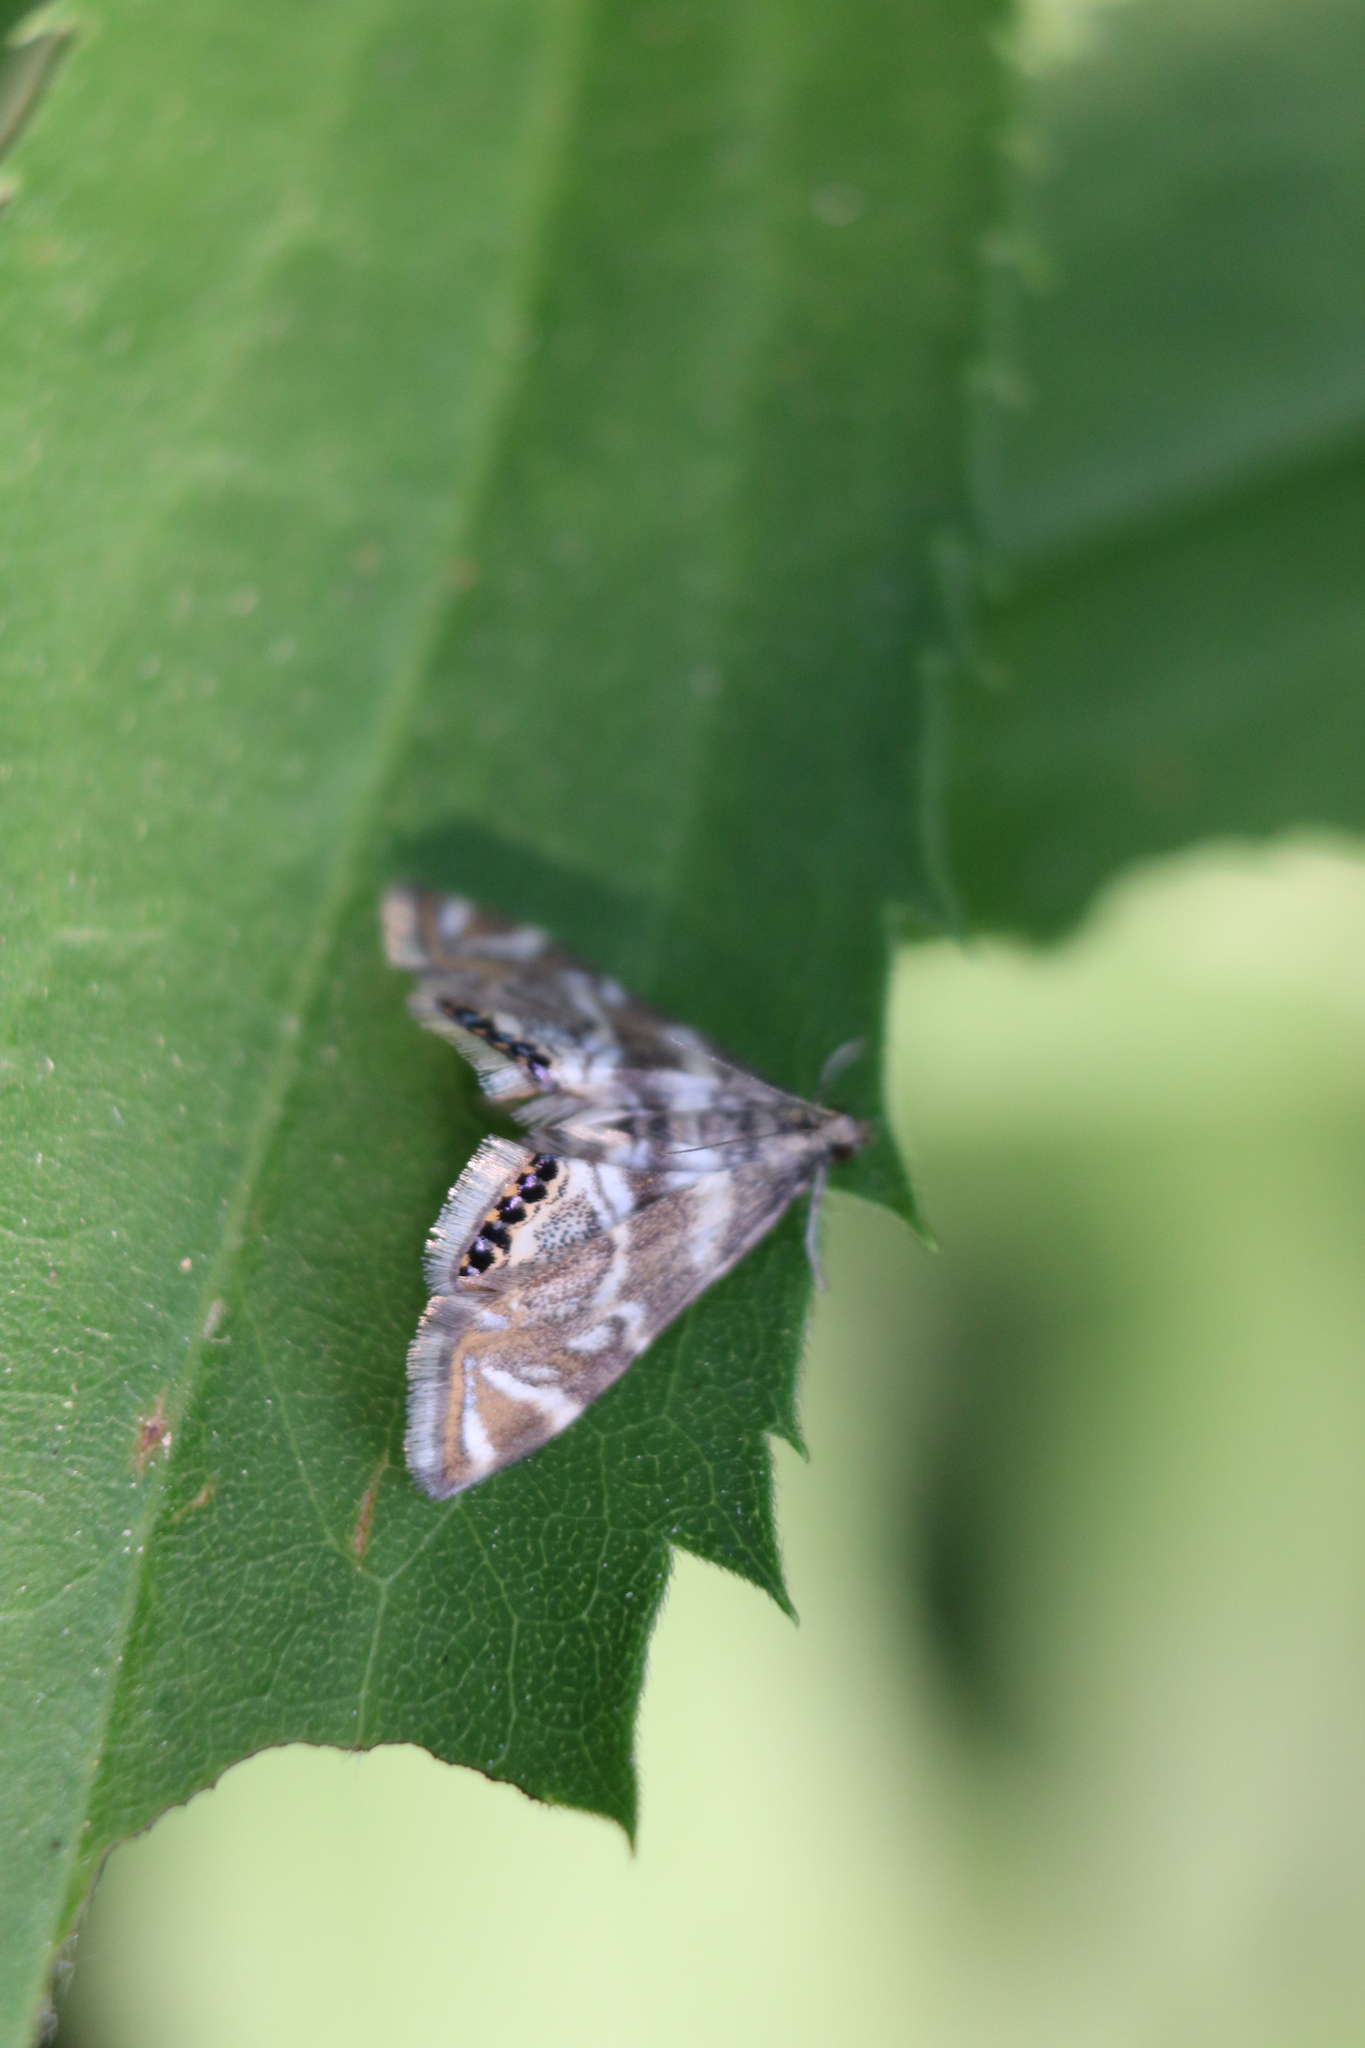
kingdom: Animalia
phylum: Arthropoda
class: Insecta
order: Lepidoptera
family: Crambidae
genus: Petrophila
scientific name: Petrophila canadensis
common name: Canadian petrophila
